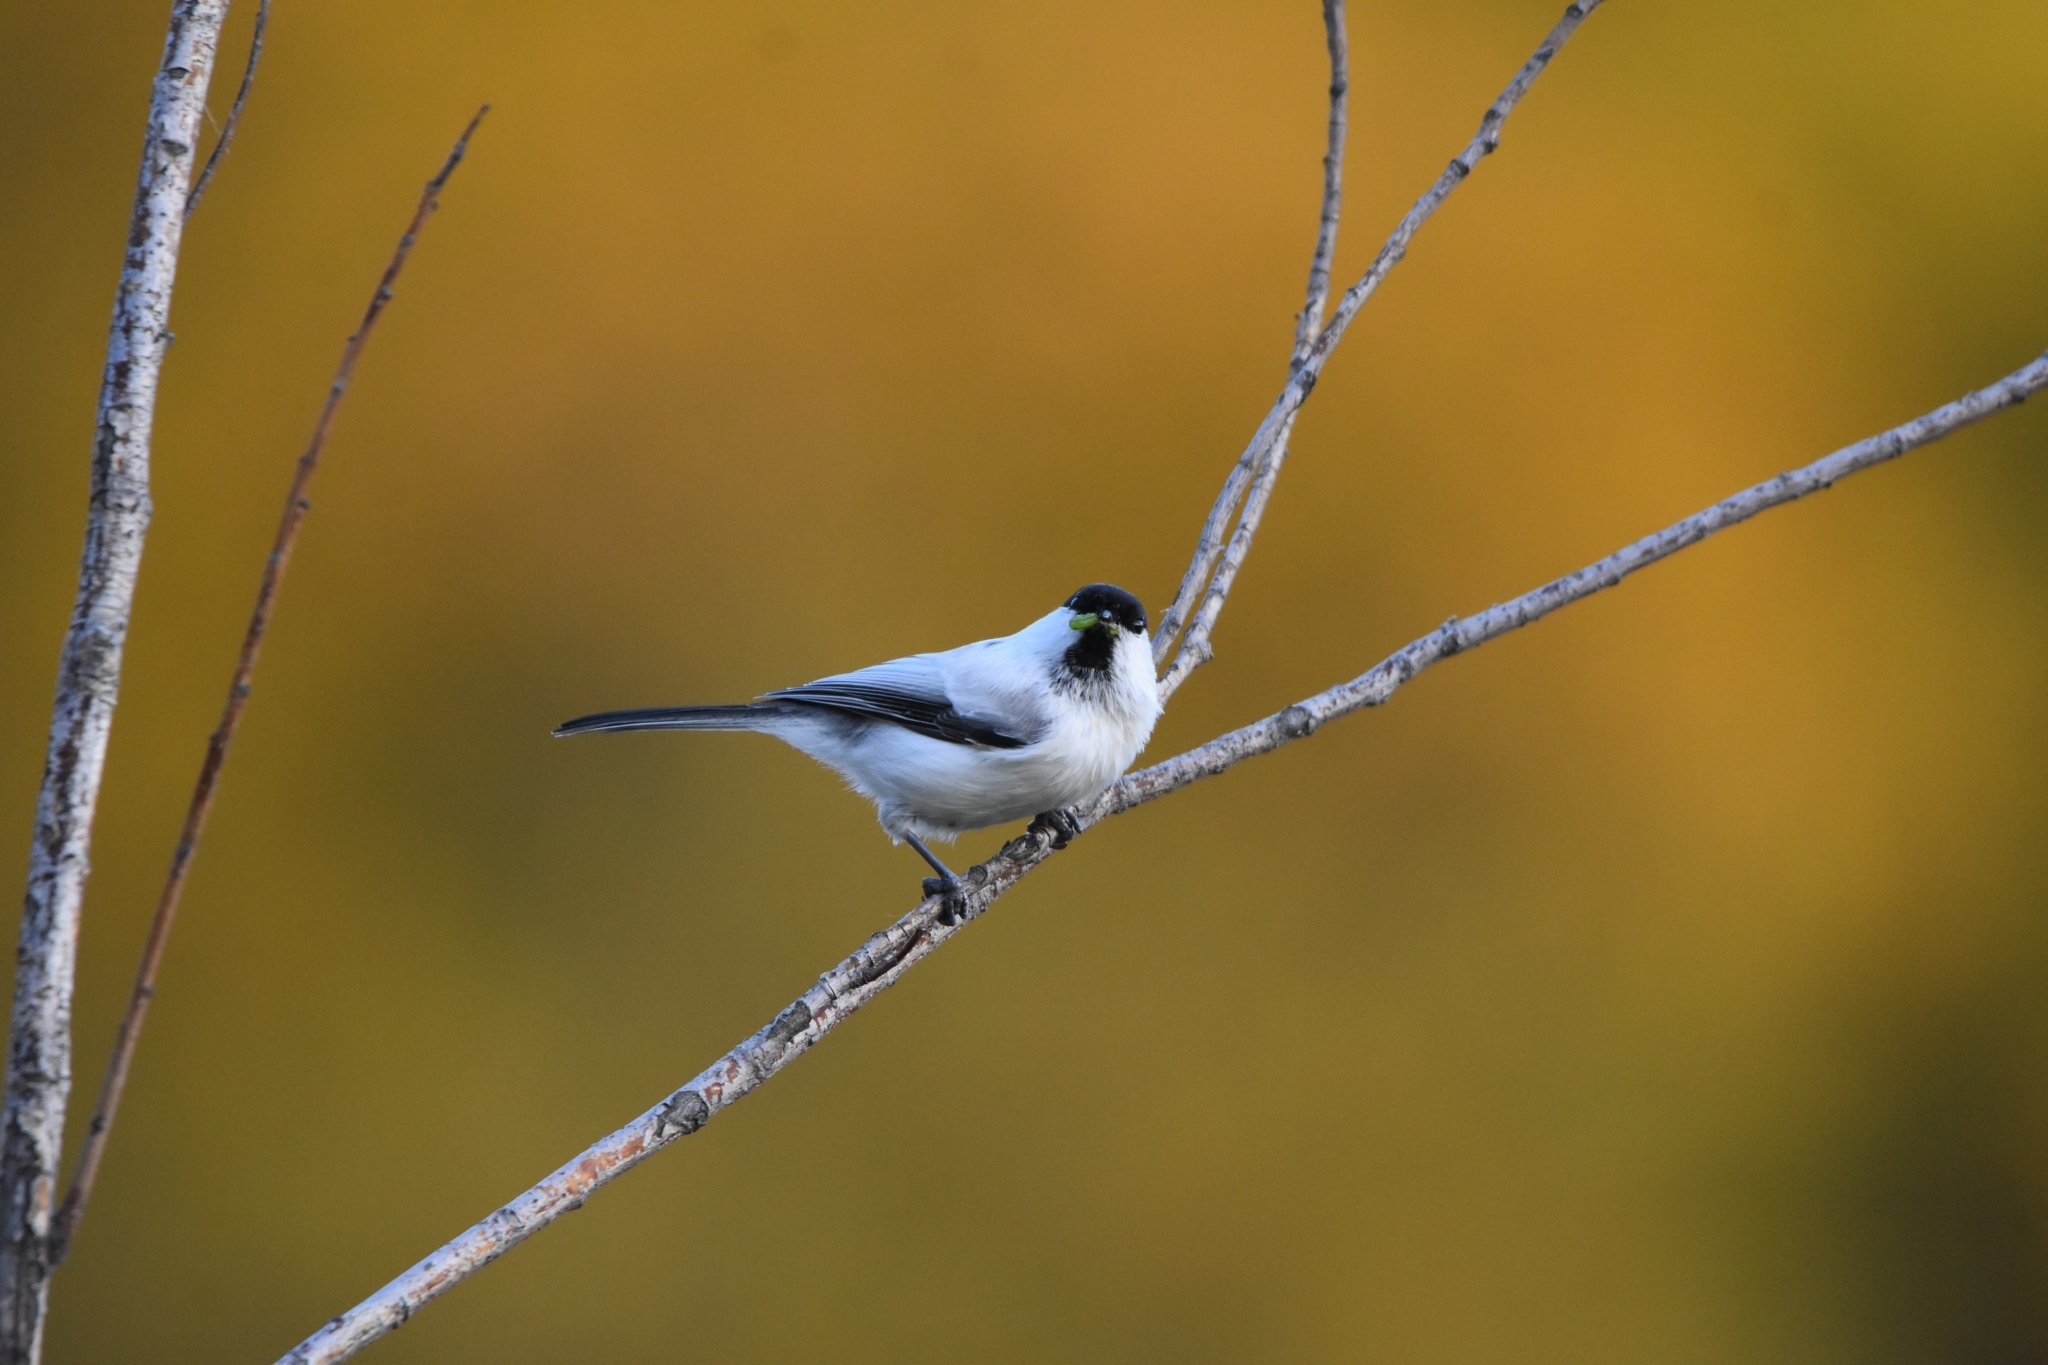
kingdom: Animalia
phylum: Chordata
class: Aves
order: Passeriformes
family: Paridae
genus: Poecile
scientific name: Poecile montanus
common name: Willow tit
